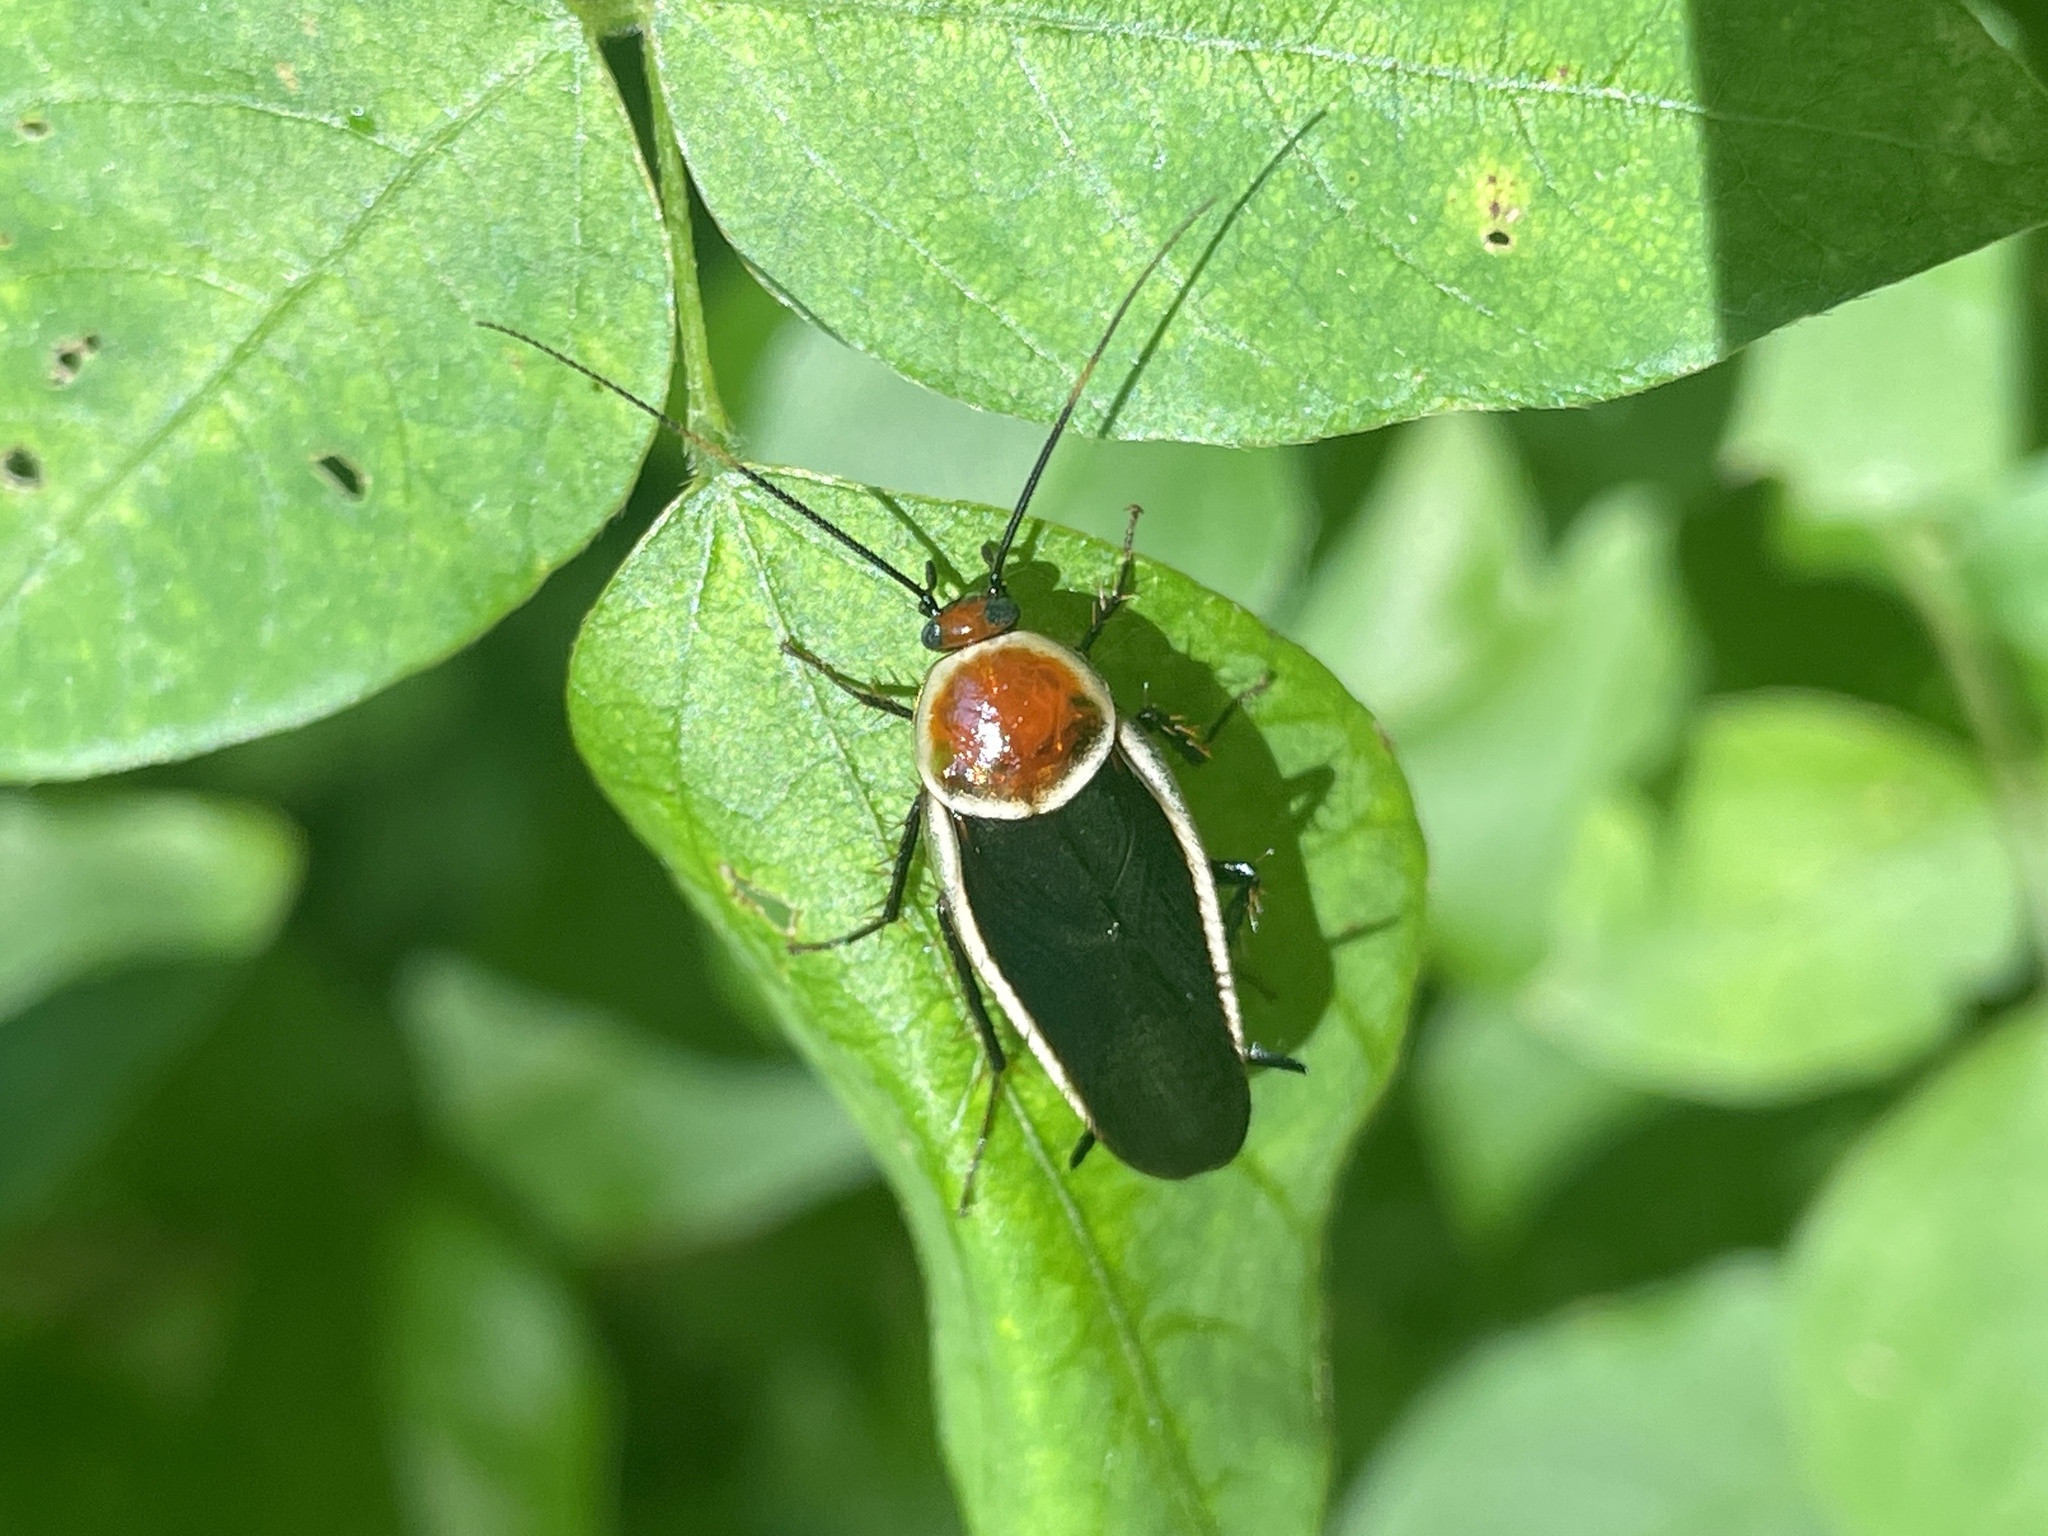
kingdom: Animalia
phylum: Arthropoda
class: Insecta
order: Blattodea
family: Ectobiidae
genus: Pseudomops
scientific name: Pseudomops septentrionalis
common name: Pale-bordered field cockroach
